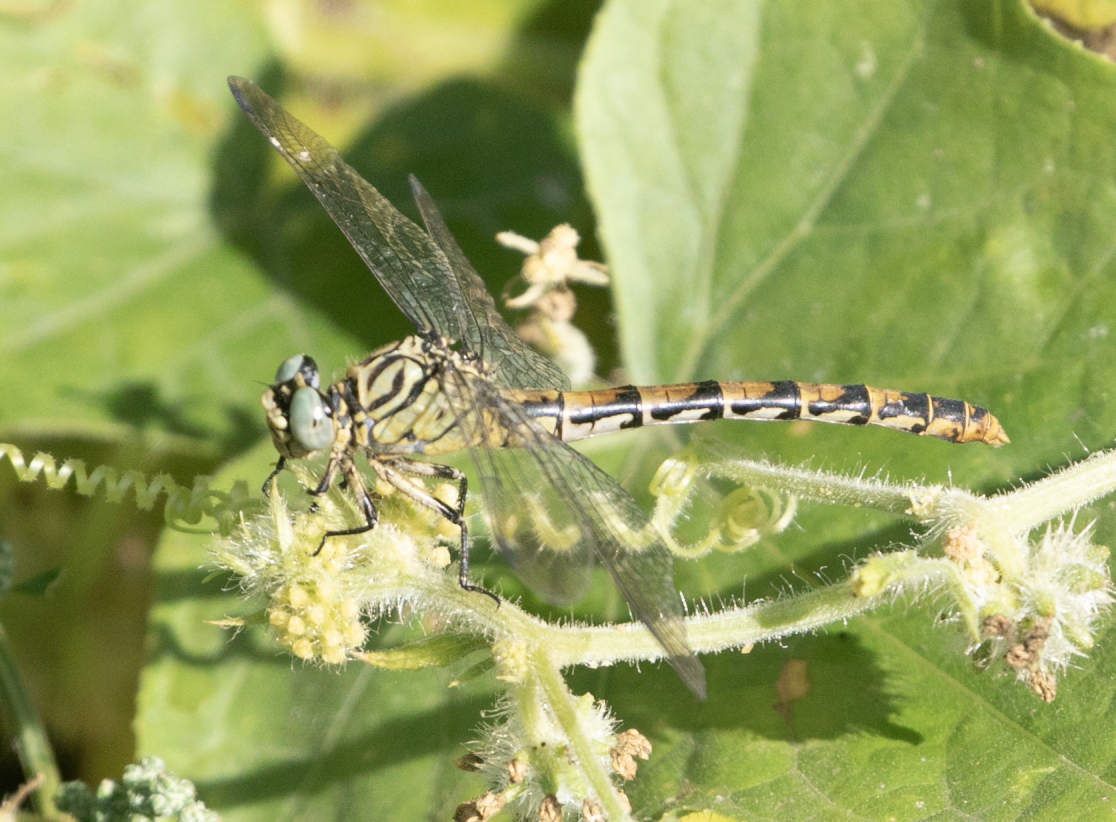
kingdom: Animalia
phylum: Arthropoda
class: Insecta
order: Odonata
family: Gomphidae
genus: Onychogomphus
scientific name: Onychogomphus forcipatus
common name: Small pincertail
